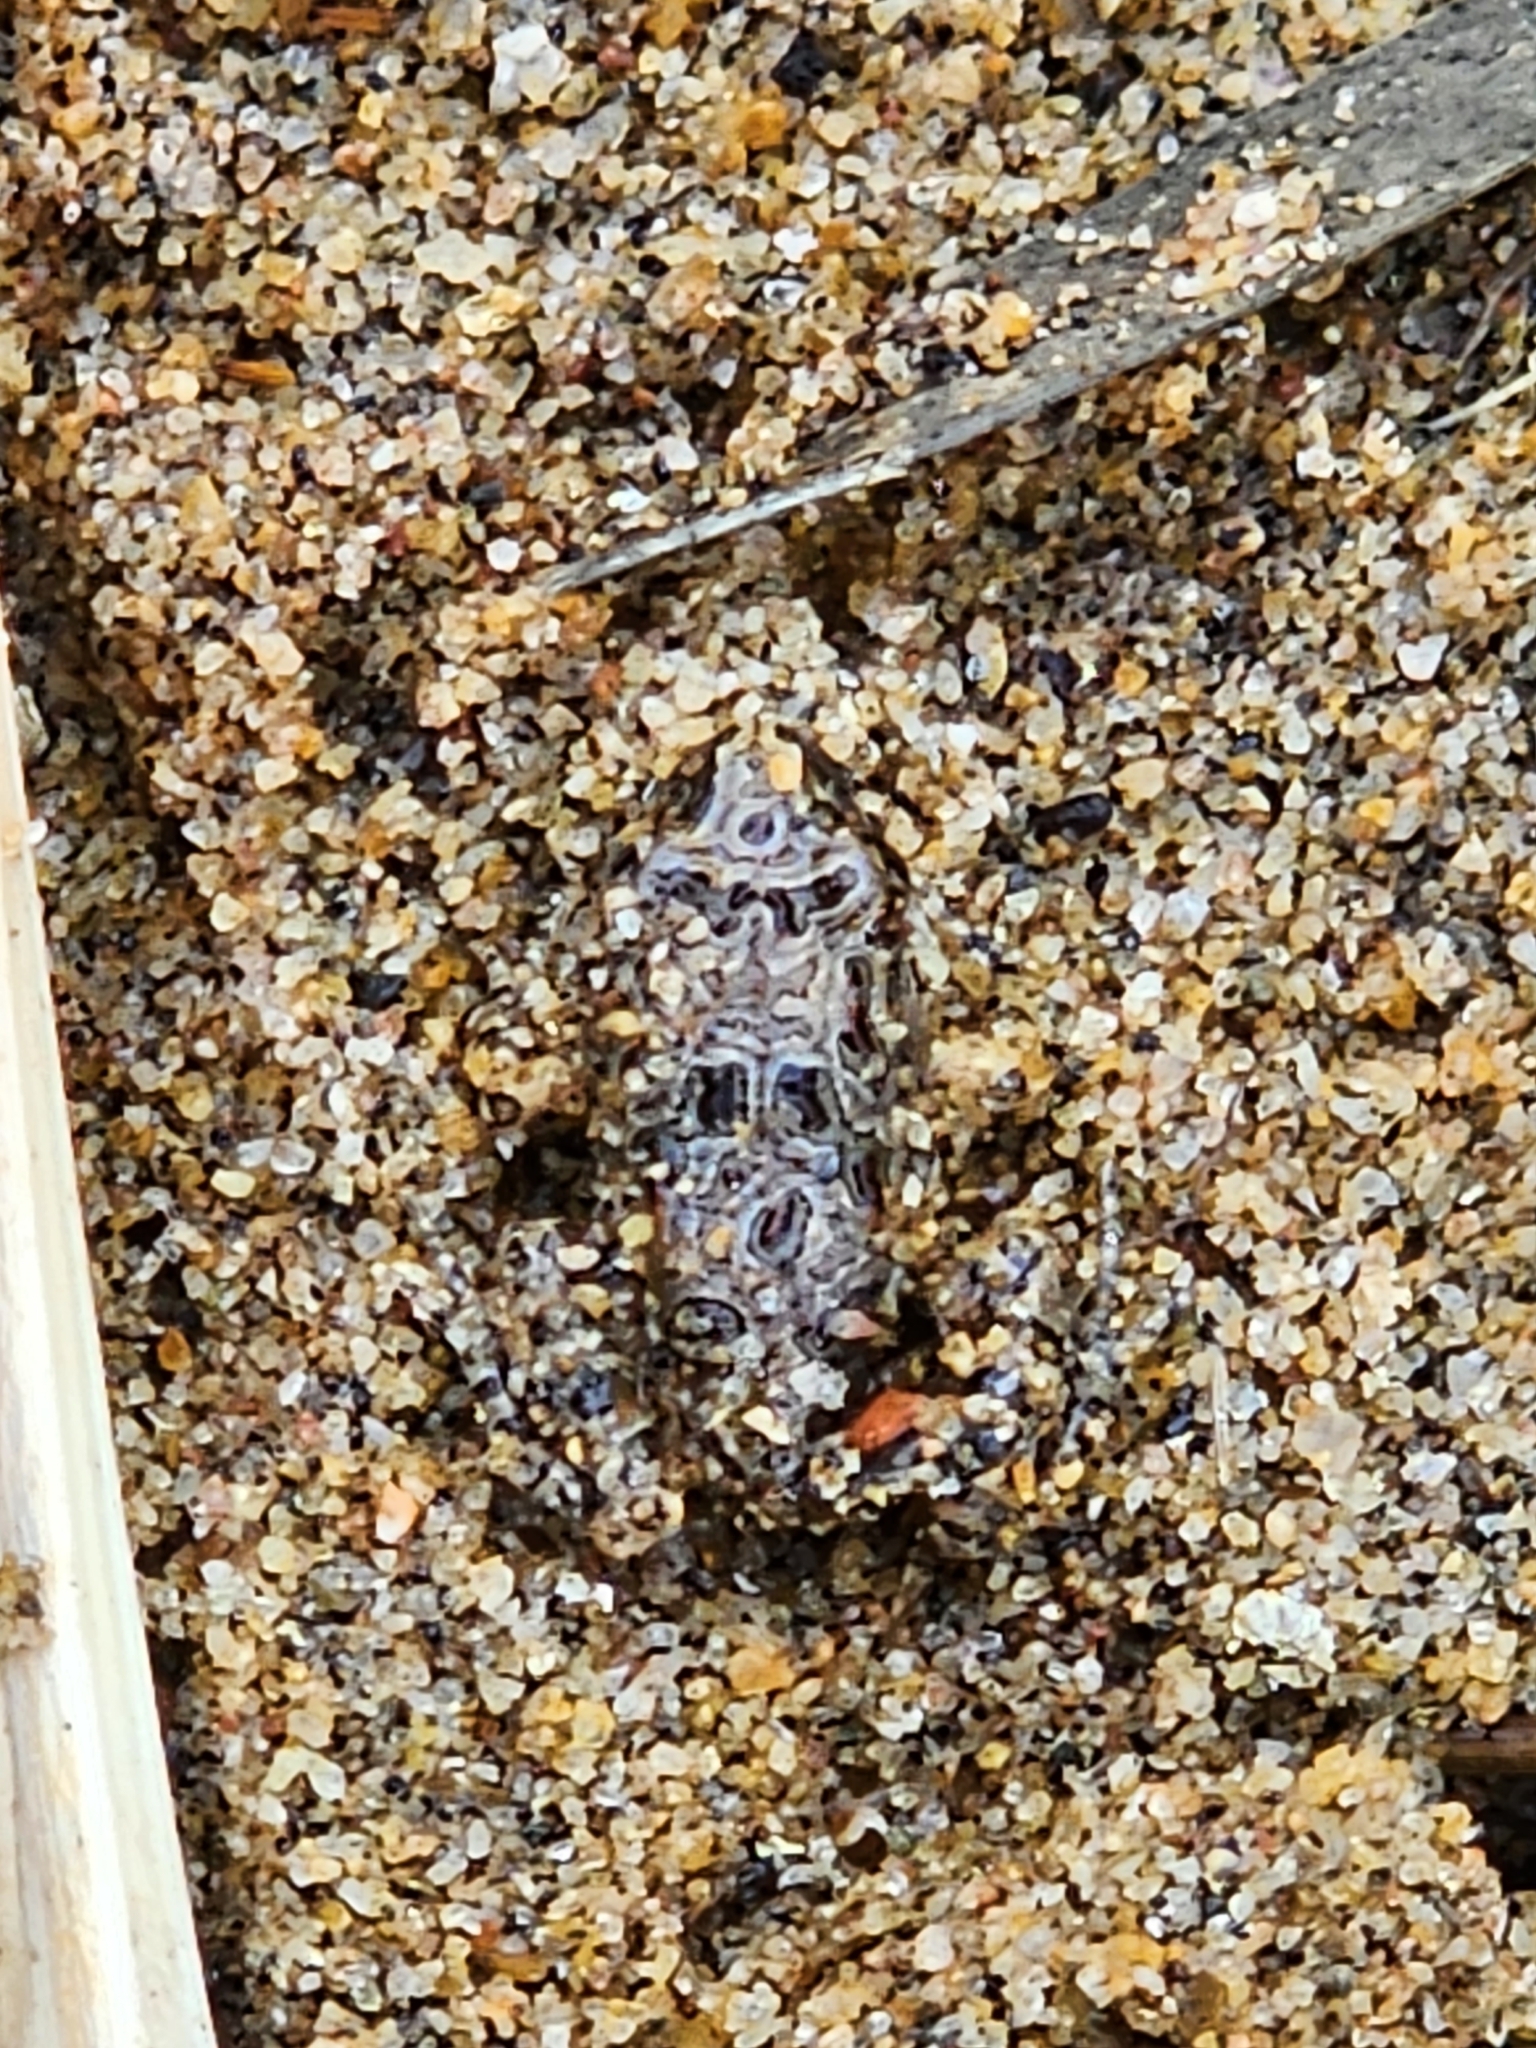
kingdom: Animalia
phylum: Chordata
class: Amphibia
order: Anura
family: Limnodynastidae
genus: Platyplectrum
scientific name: Platyplectrum ornatum
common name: Ornate burrowing frog
